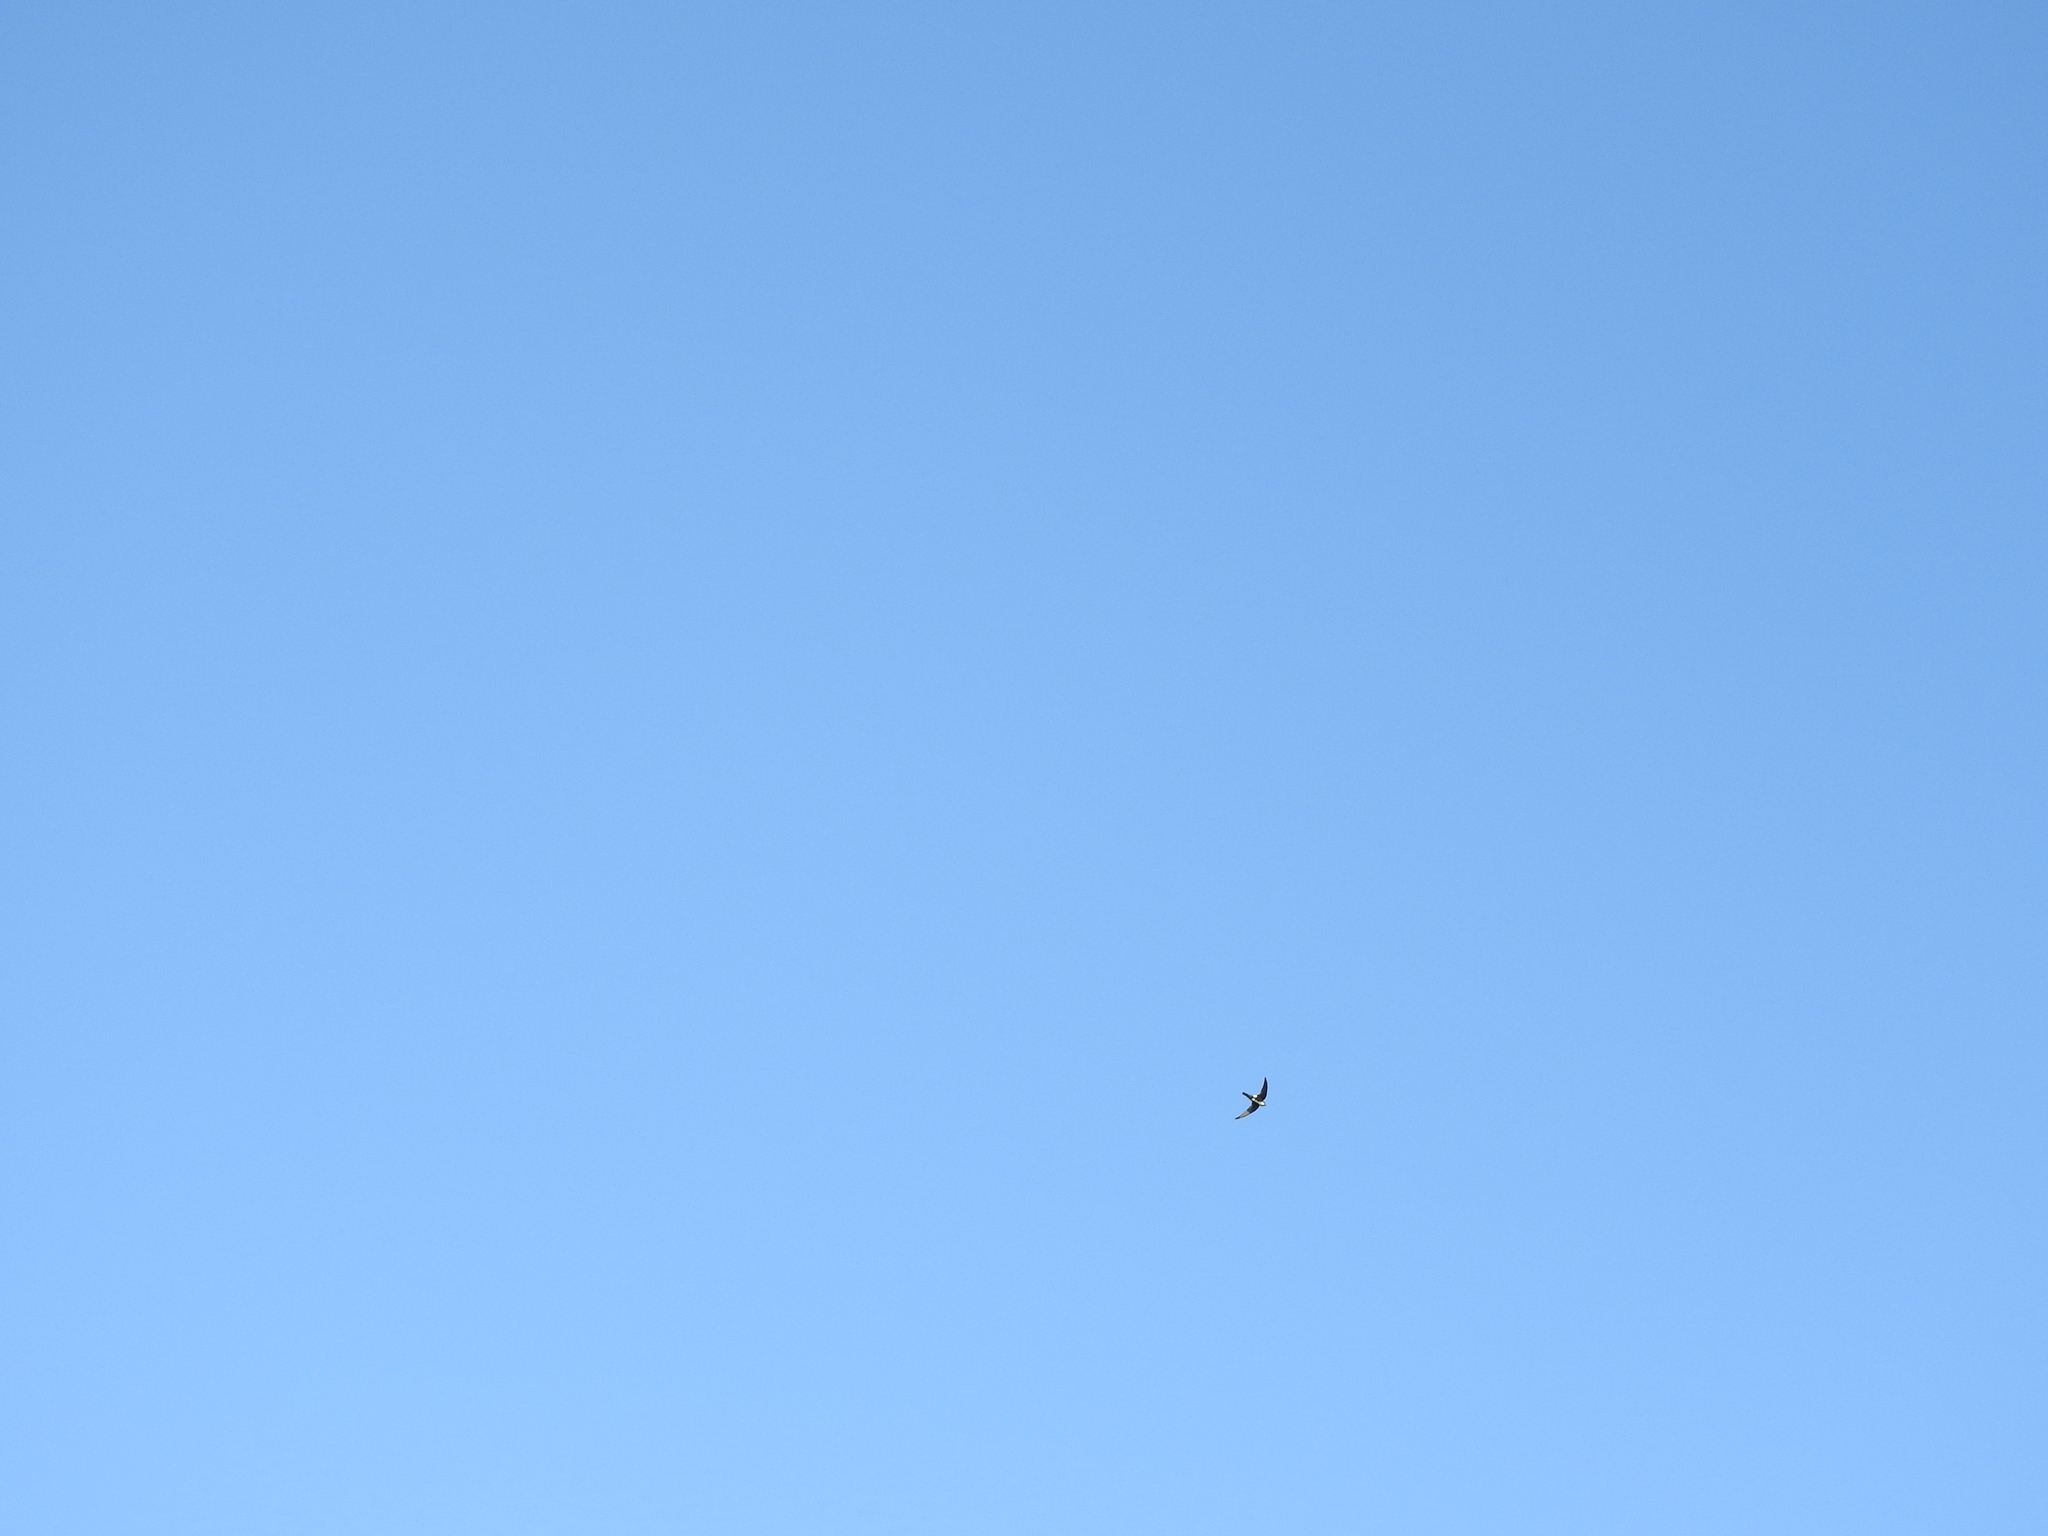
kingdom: Animalia
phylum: Chordata
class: Aves
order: Apodiformes
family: Apodidae
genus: Aeronautes
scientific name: Aeronautes saxatalis
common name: White-throated swift
